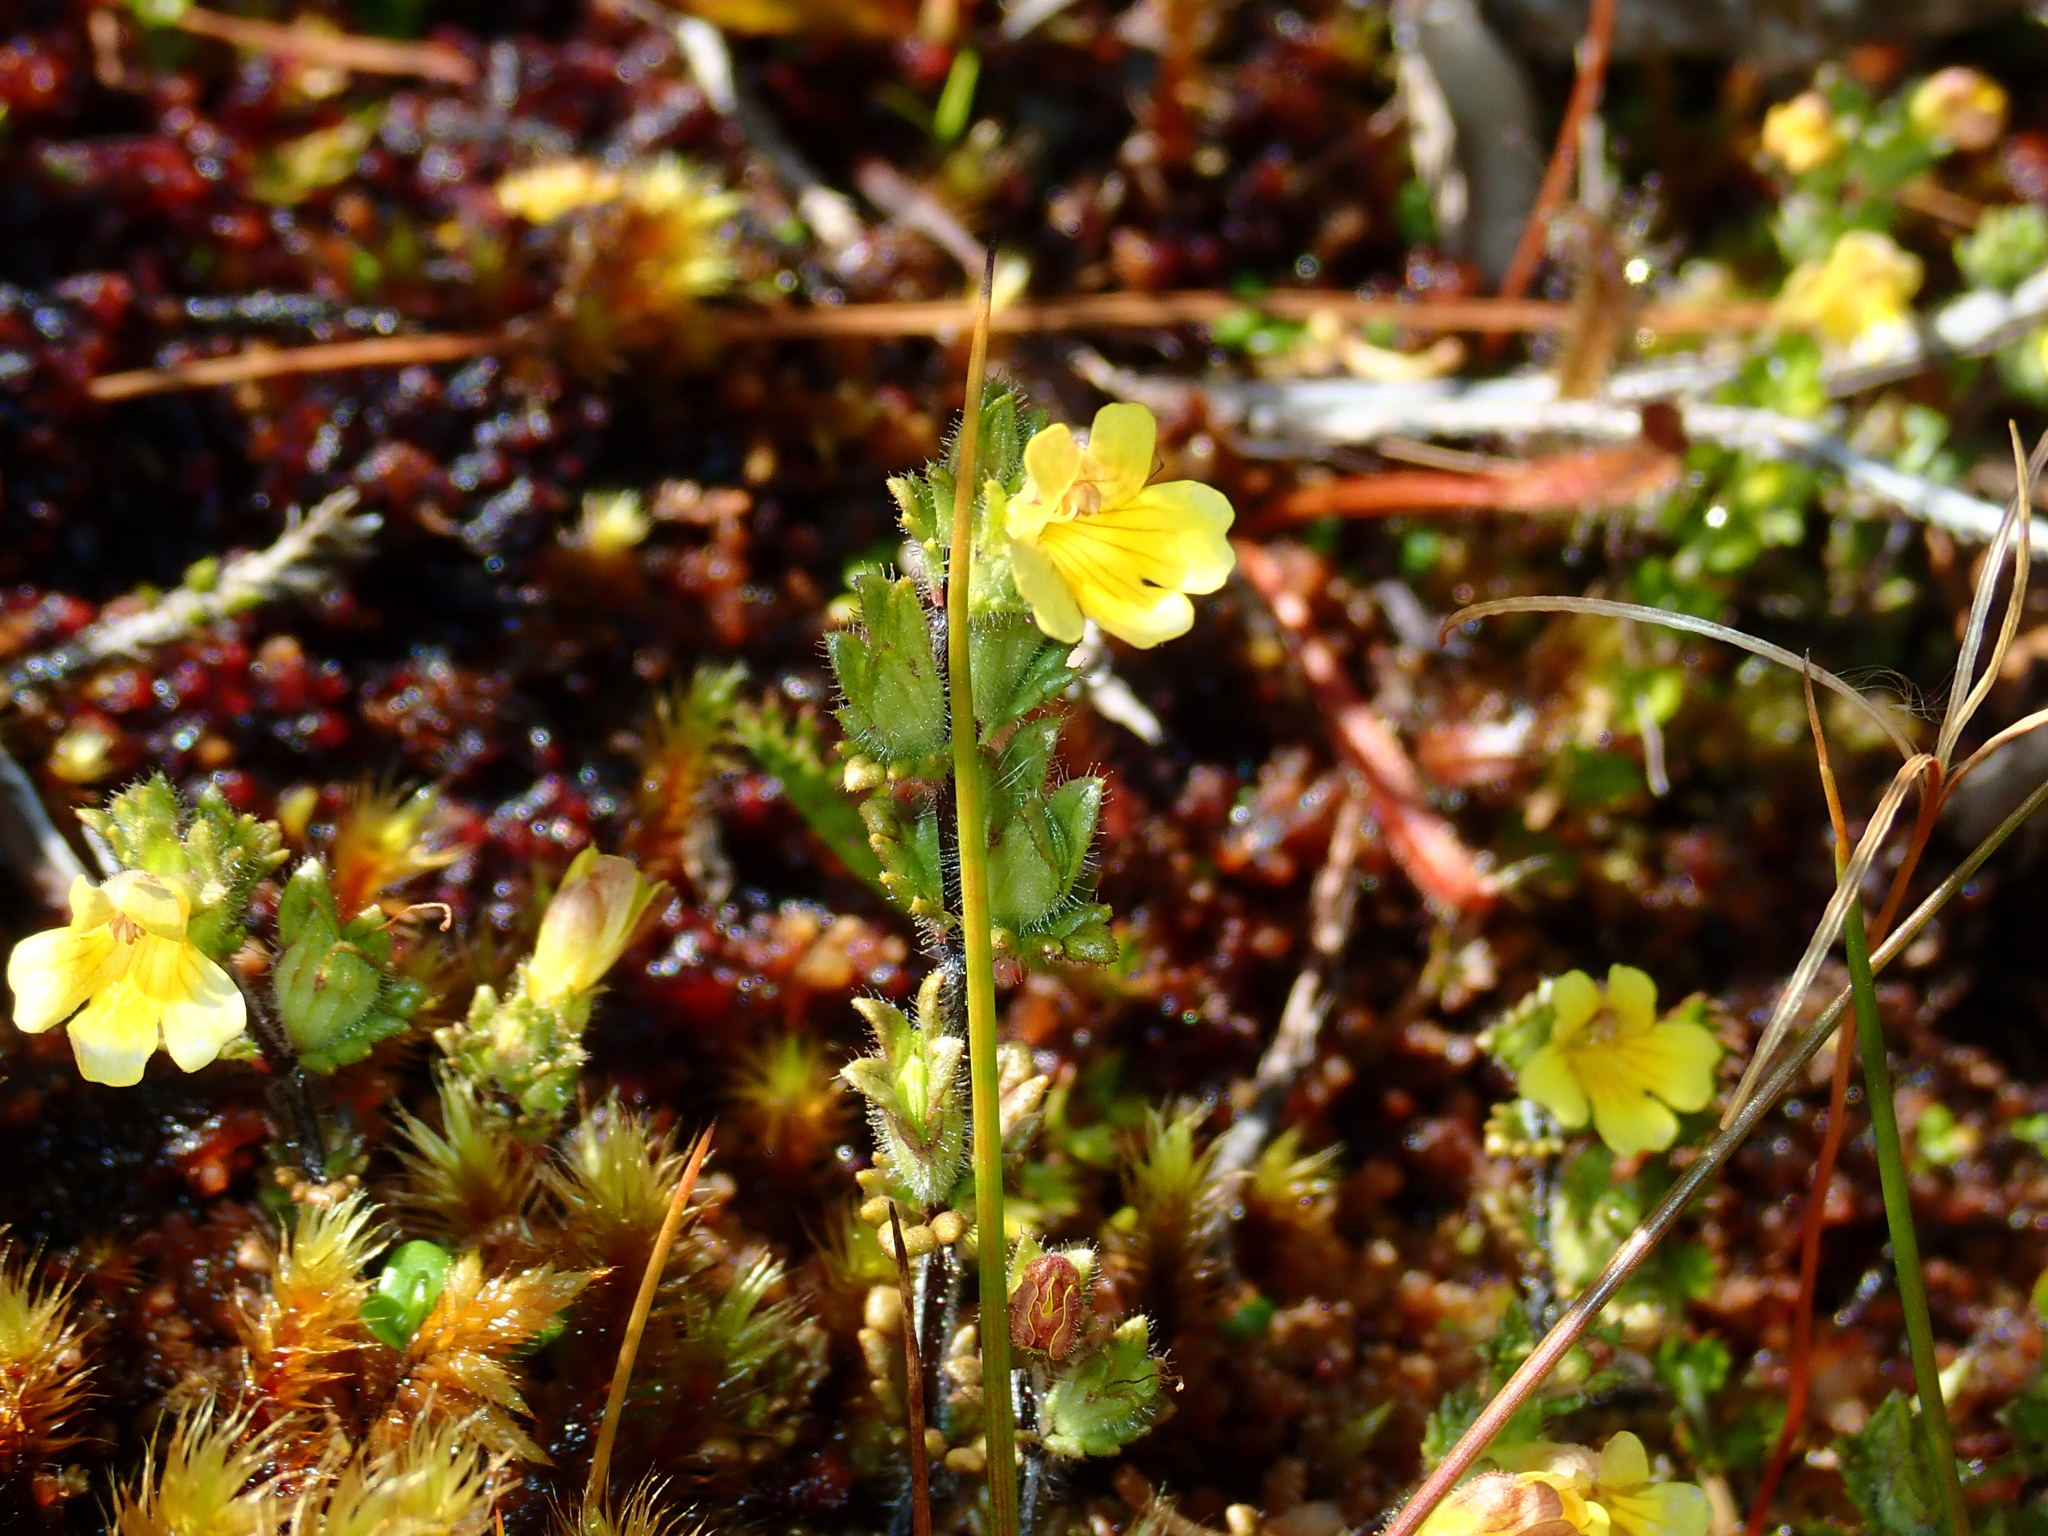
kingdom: Plantae
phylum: Tracheophyta
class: Magnoliopsida
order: Lamiales
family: Orobanchaceae
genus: Euphrasia
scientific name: Euphrasia cockayneana
